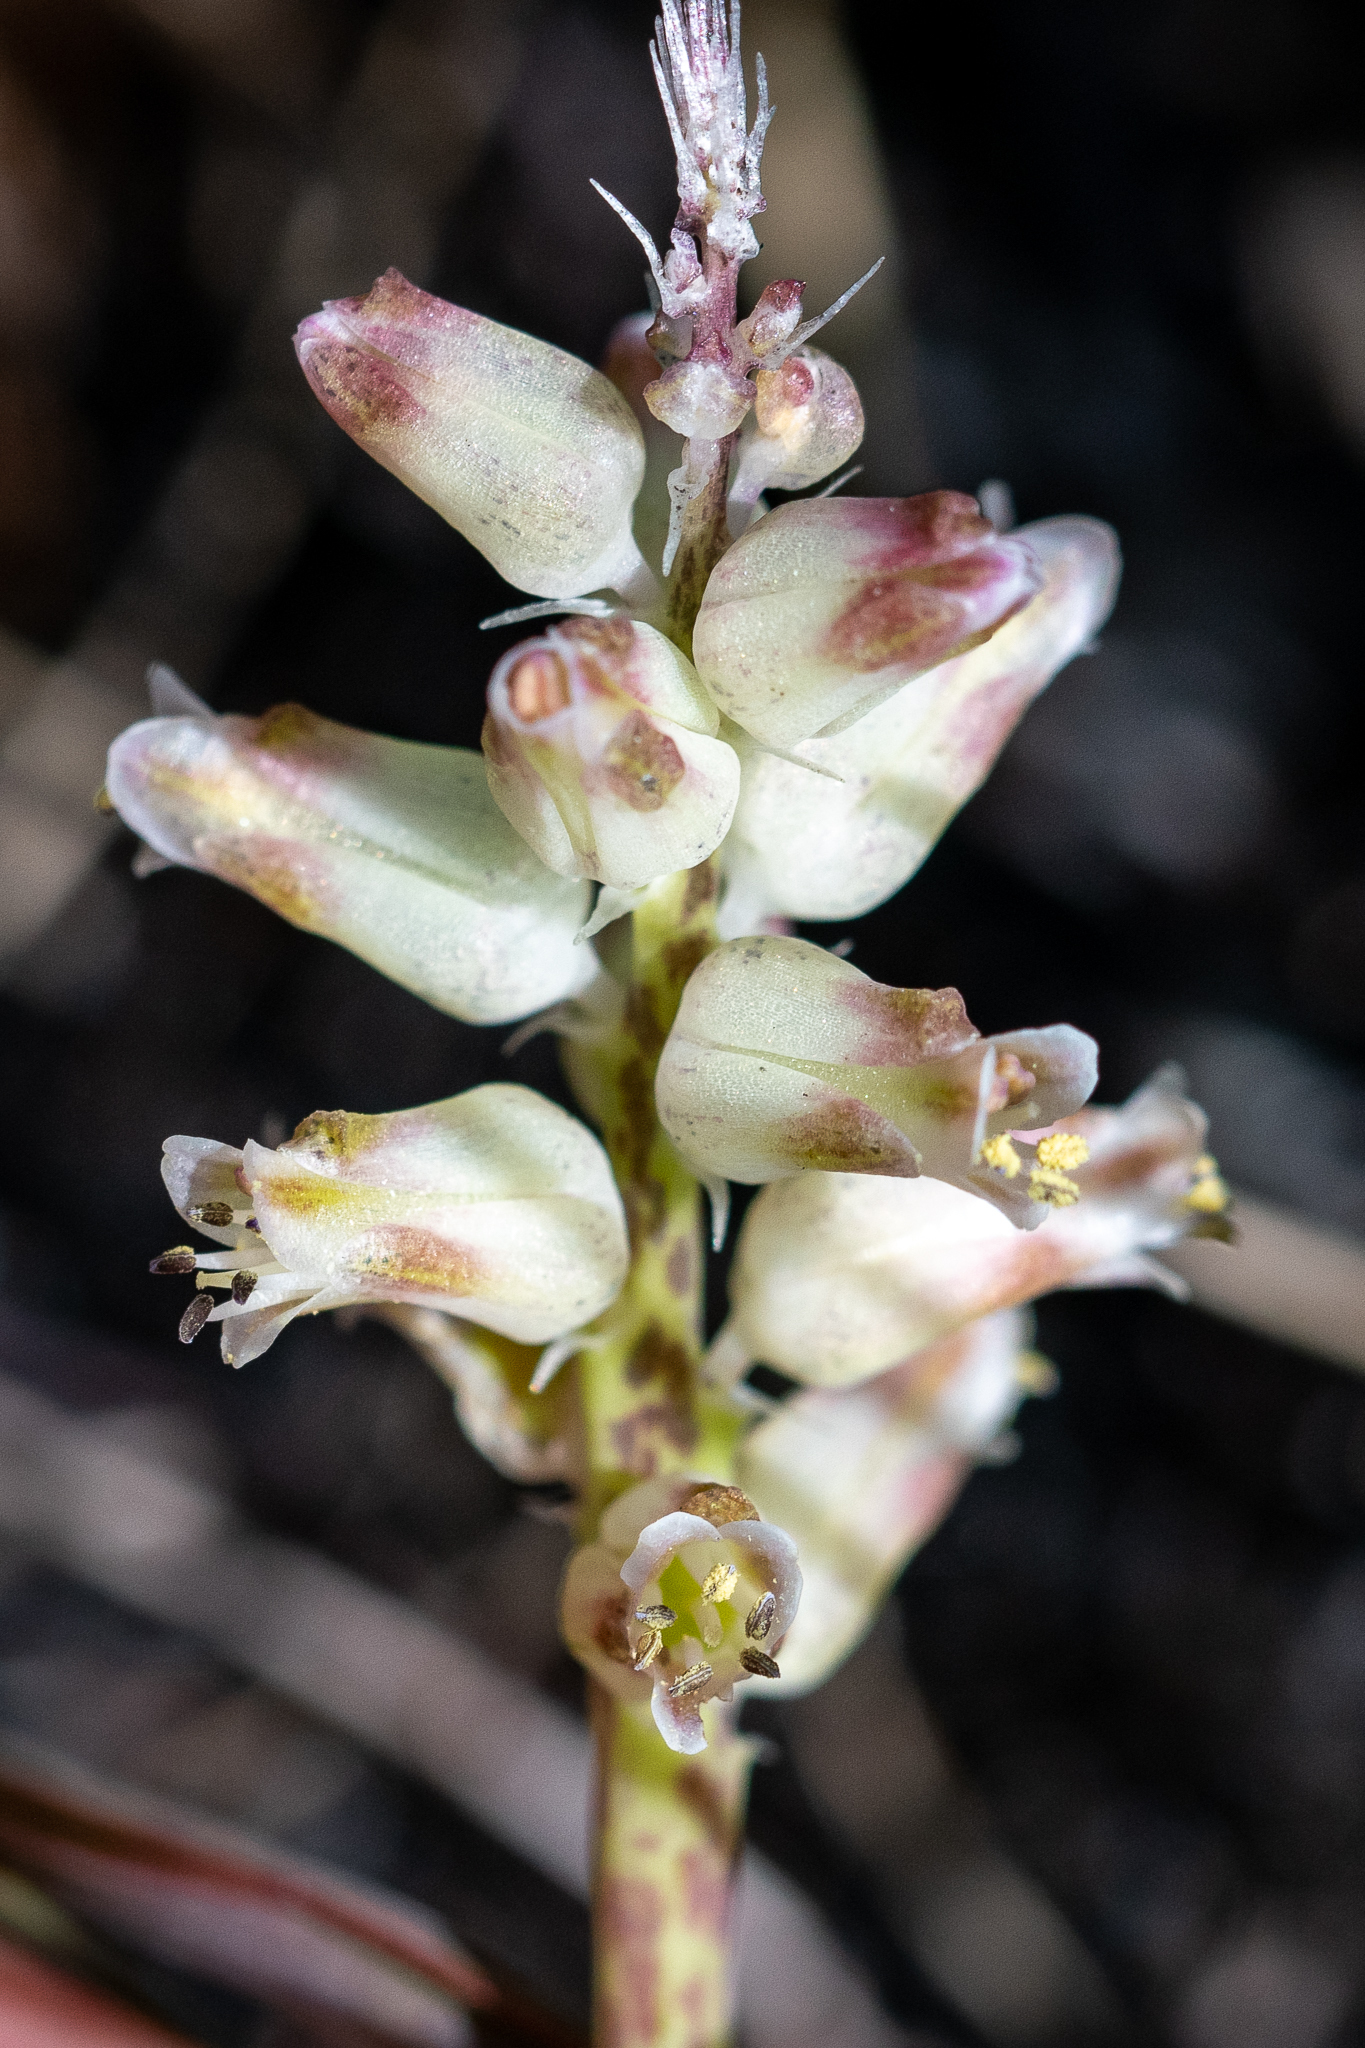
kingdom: Plantae
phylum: Tracheophyta
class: Liliopsida
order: Asparagales
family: Asparagaceae
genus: Lachenalia
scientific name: Lachenalia lactosa
